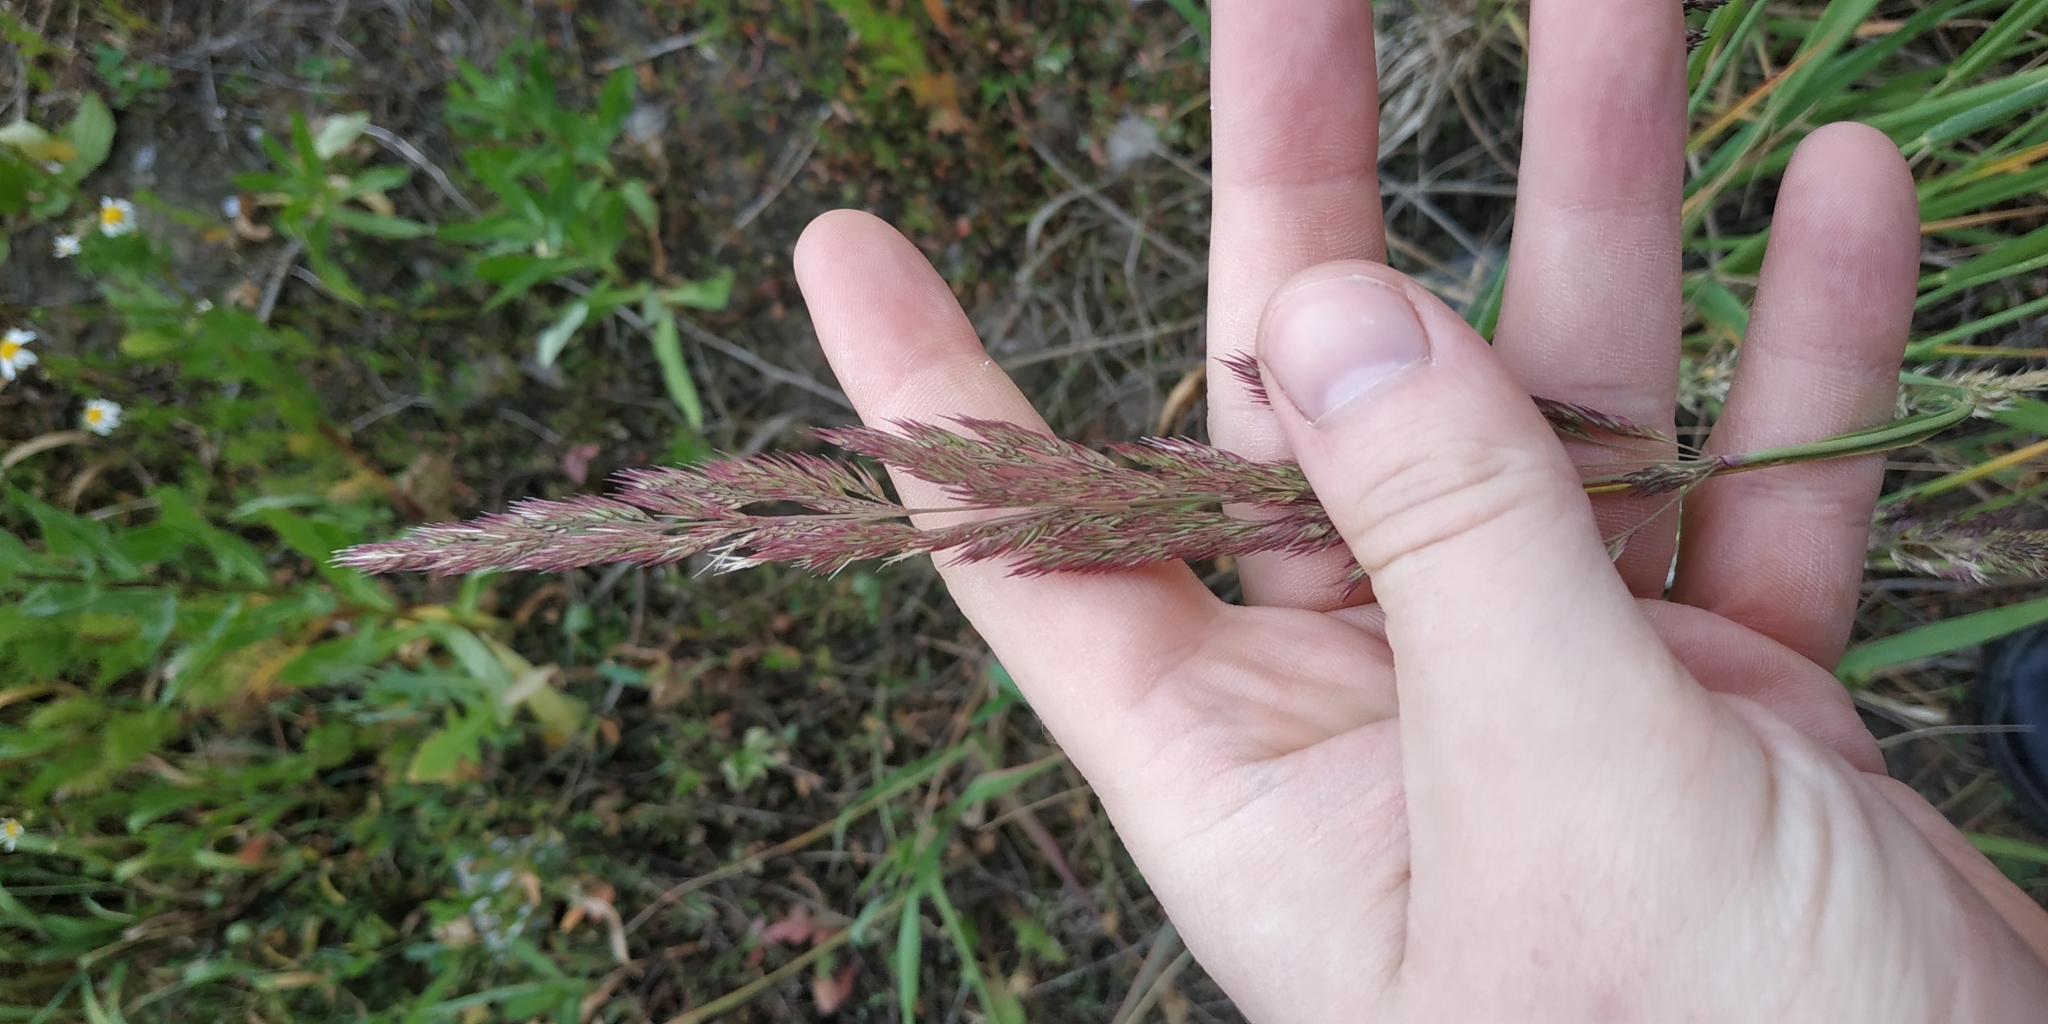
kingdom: Plantae
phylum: Tracheophyta
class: Liliopsida
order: Poales
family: Poaceae
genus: Calamagrostis
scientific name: Calamagrostis epigejos
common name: Wood small-reed
